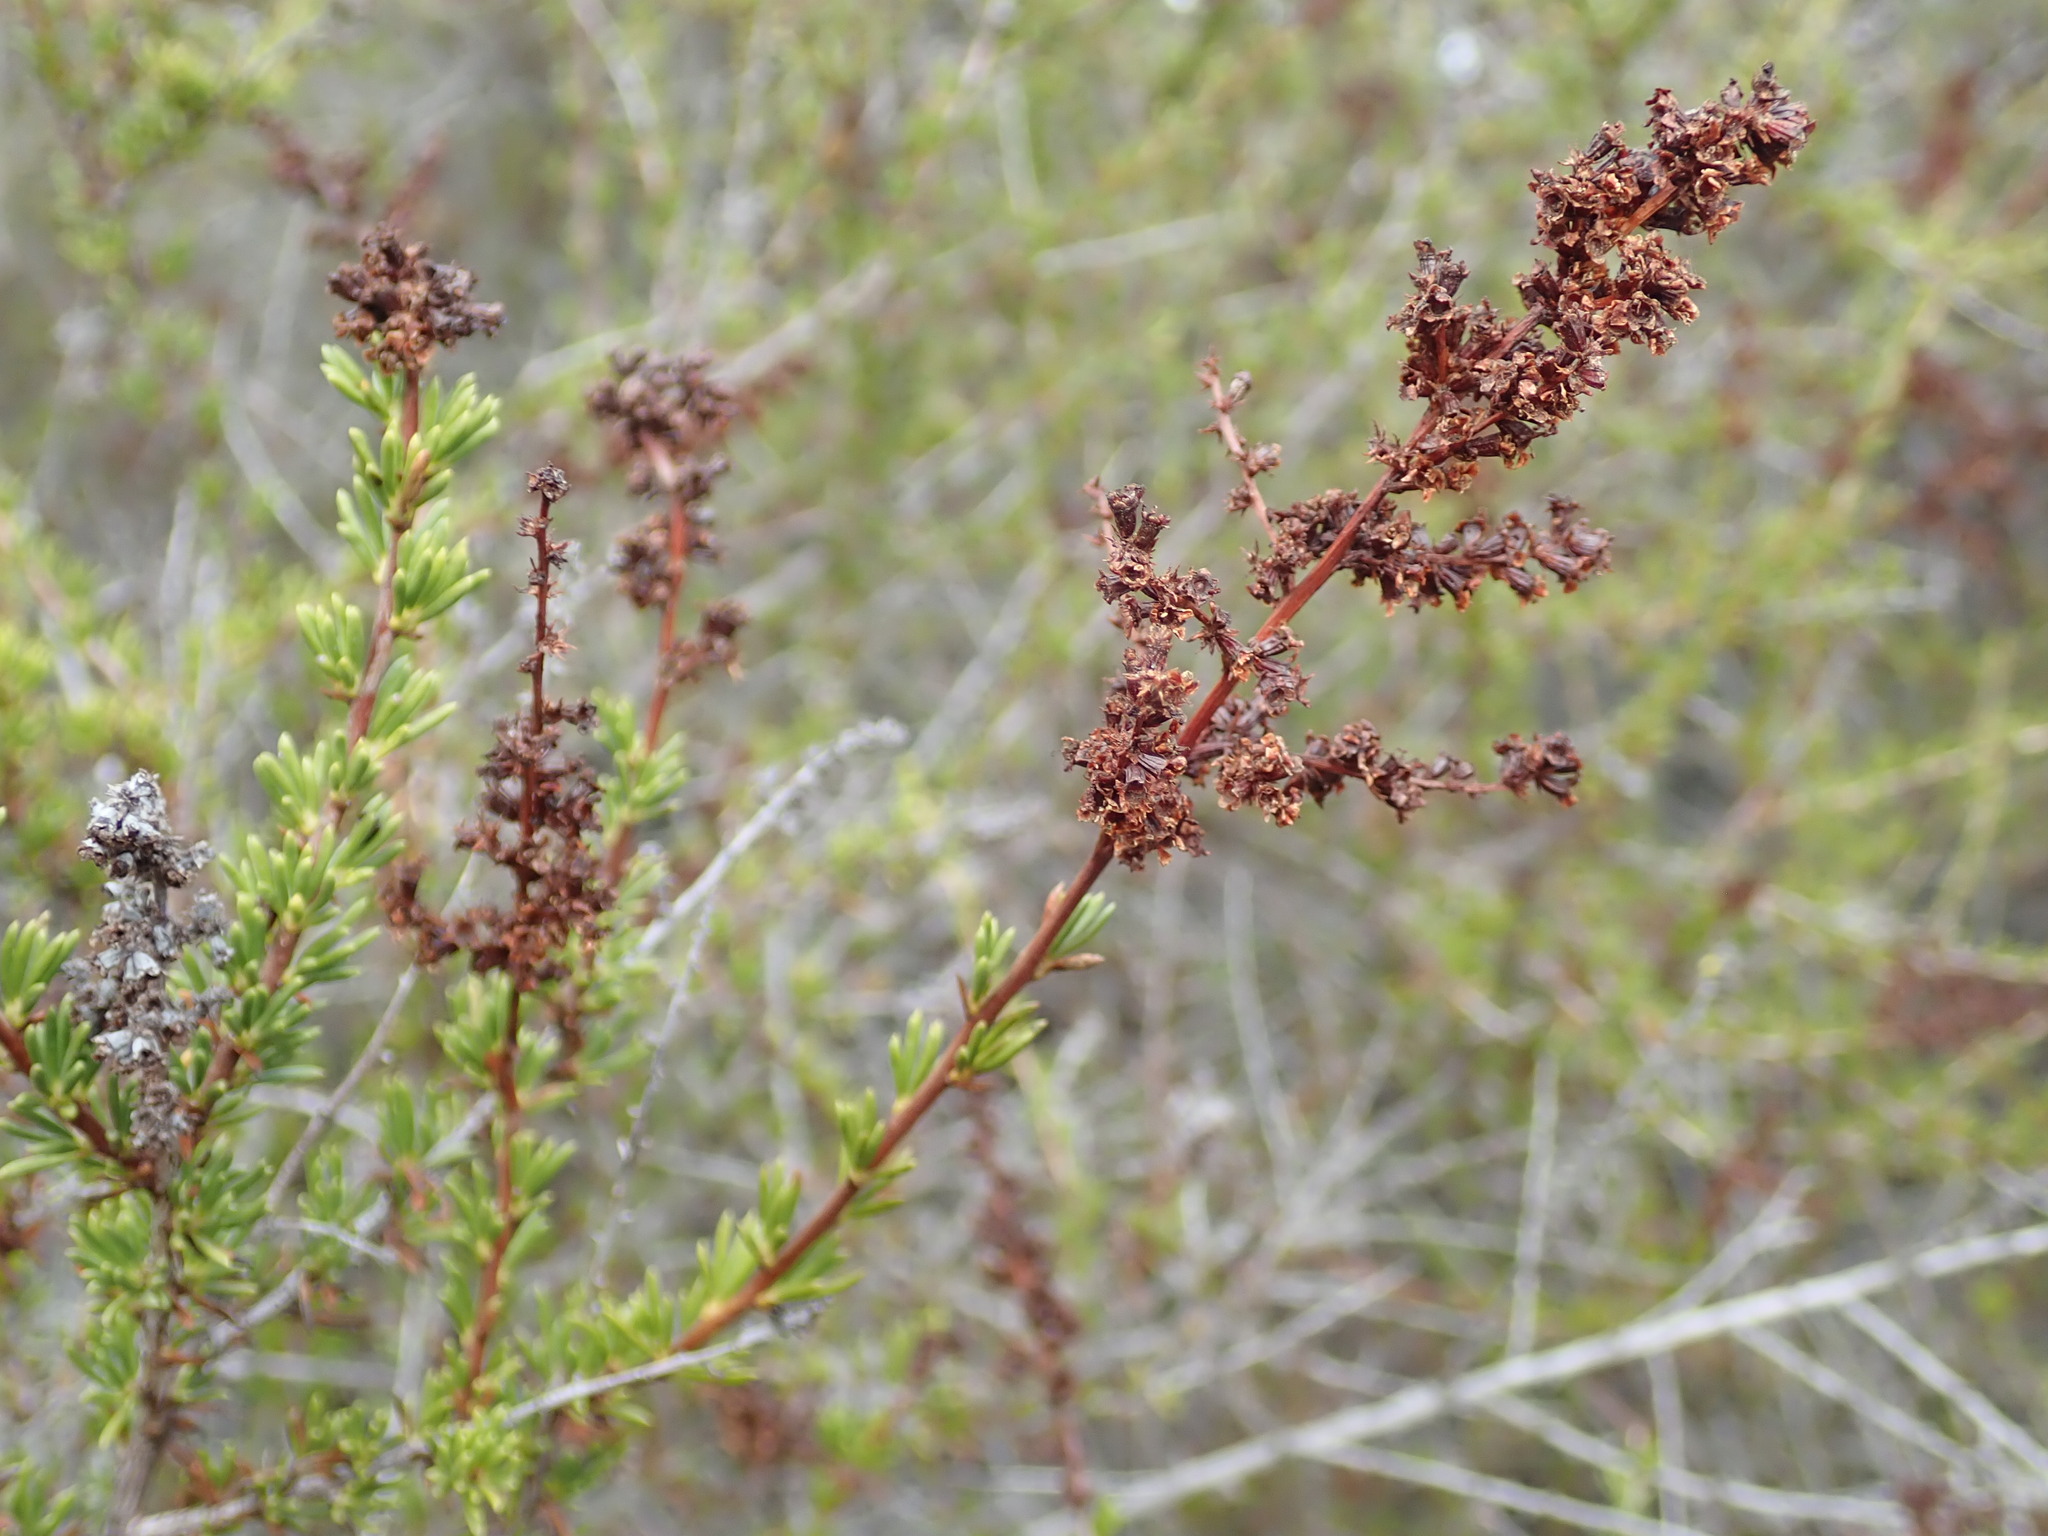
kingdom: Plantae
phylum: Tracheophyta
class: Magnoliopsida
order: Rosales
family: Rosaceae
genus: Adenostoma
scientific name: Adenostoma fasciculatum
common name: Chamise
